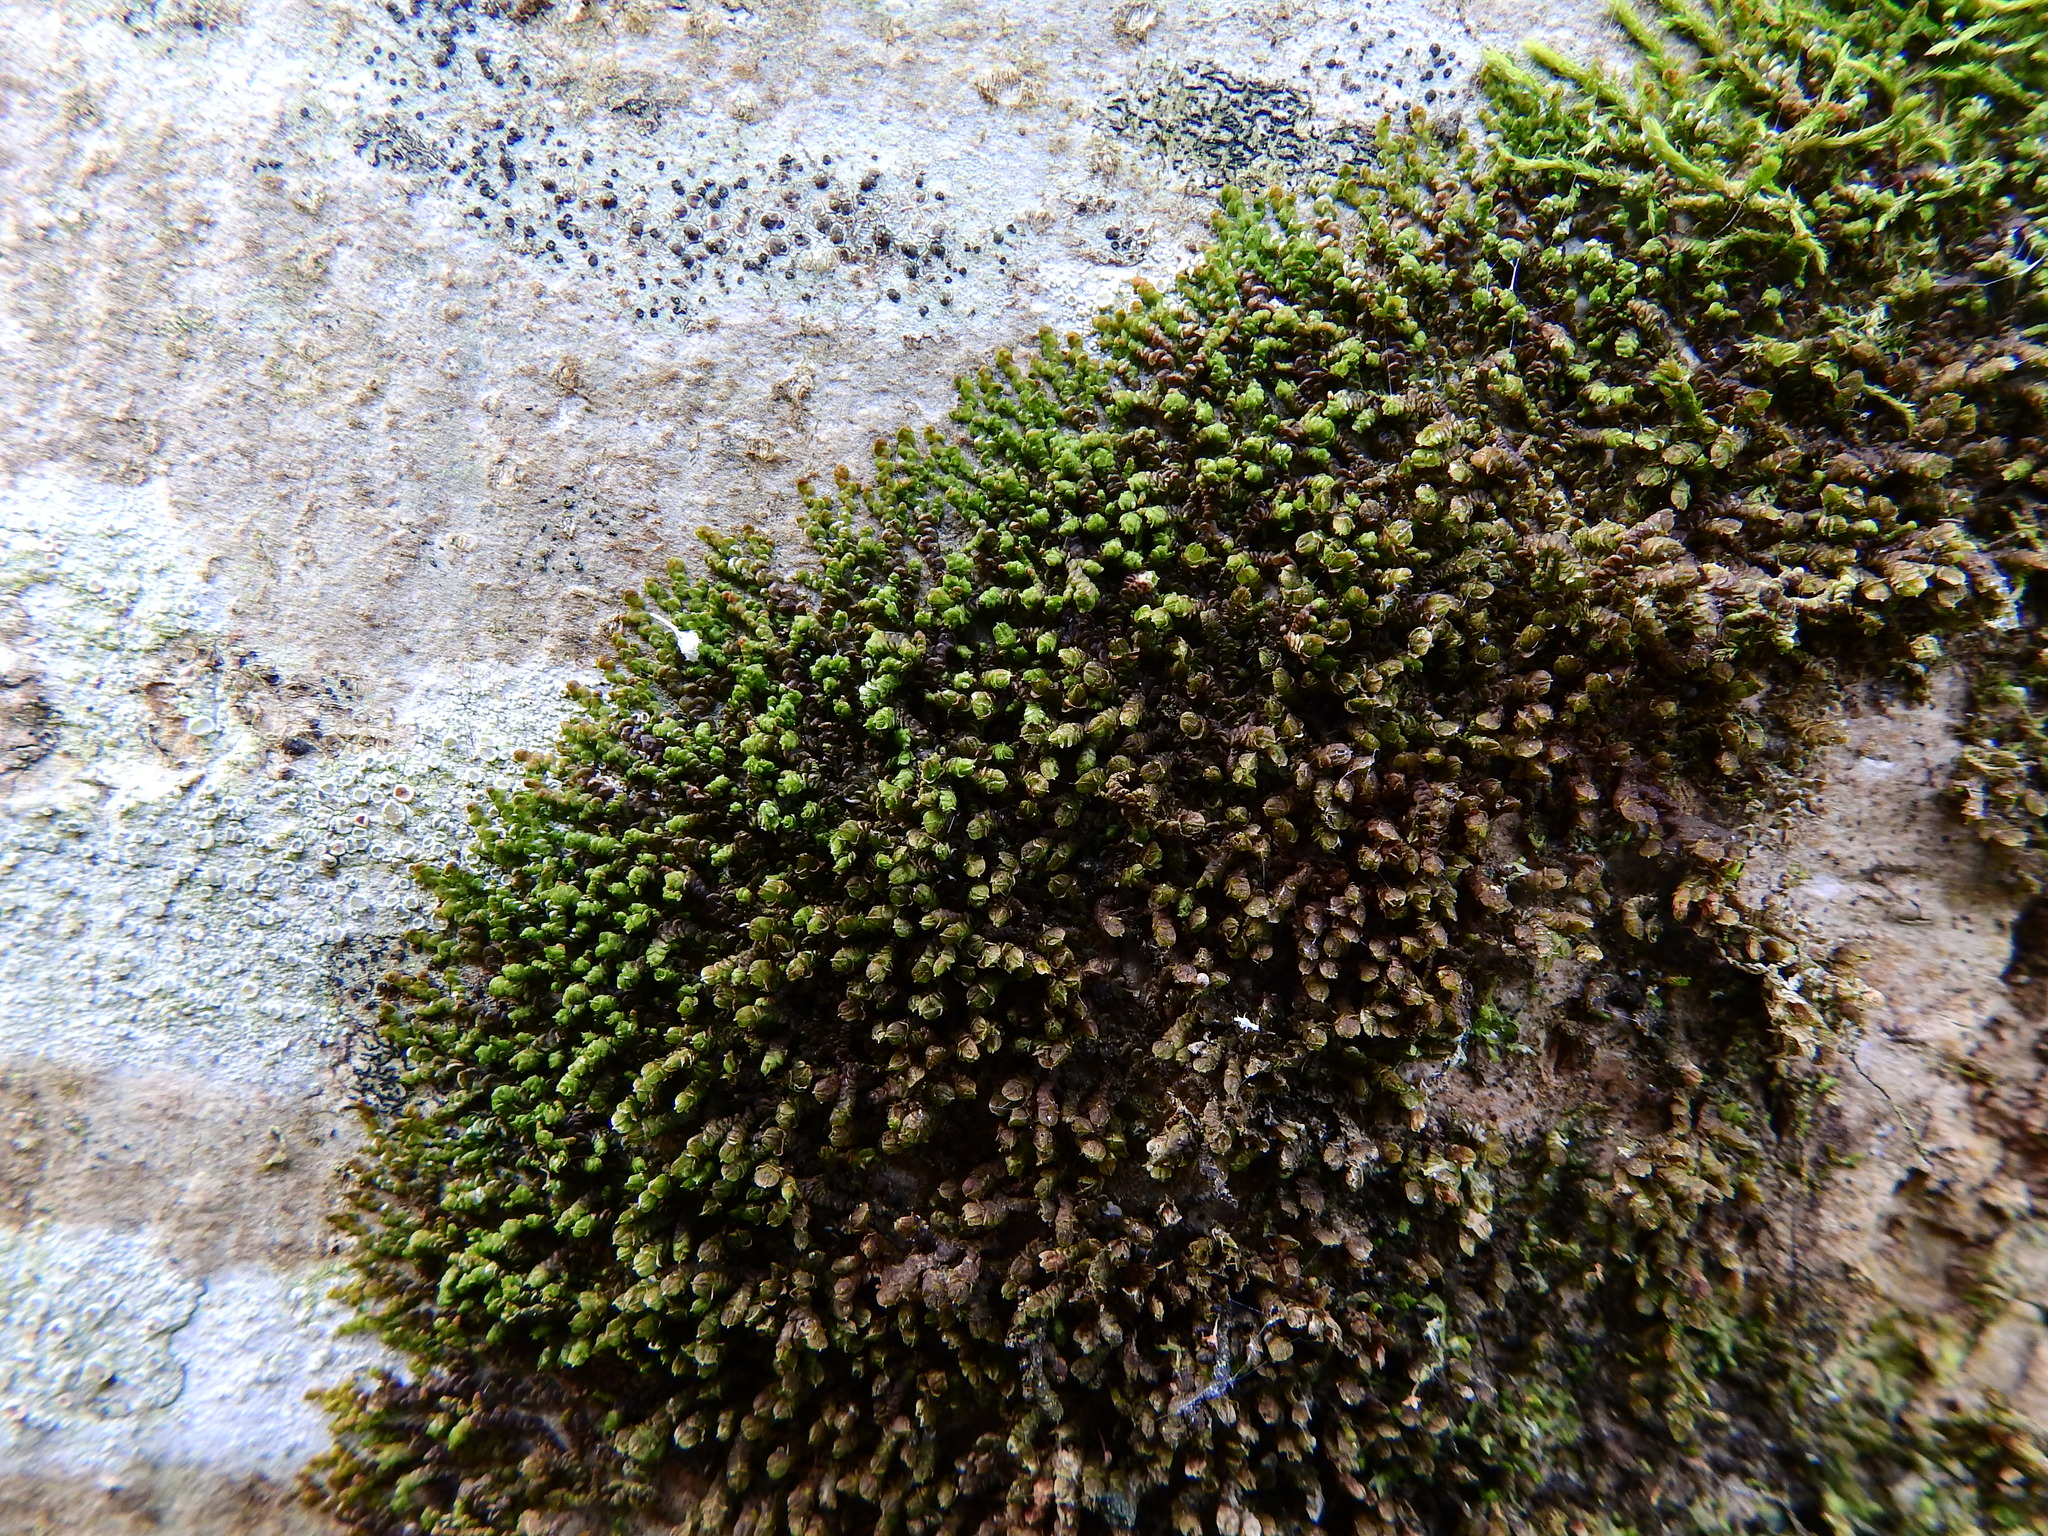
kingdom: Plantae
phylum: Marchantiophyta
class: Jungermanniopsida
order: Porellales
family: Frullaniaceae
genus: Frullania
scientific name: Frullania dilatata
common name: Dilated scalewort
